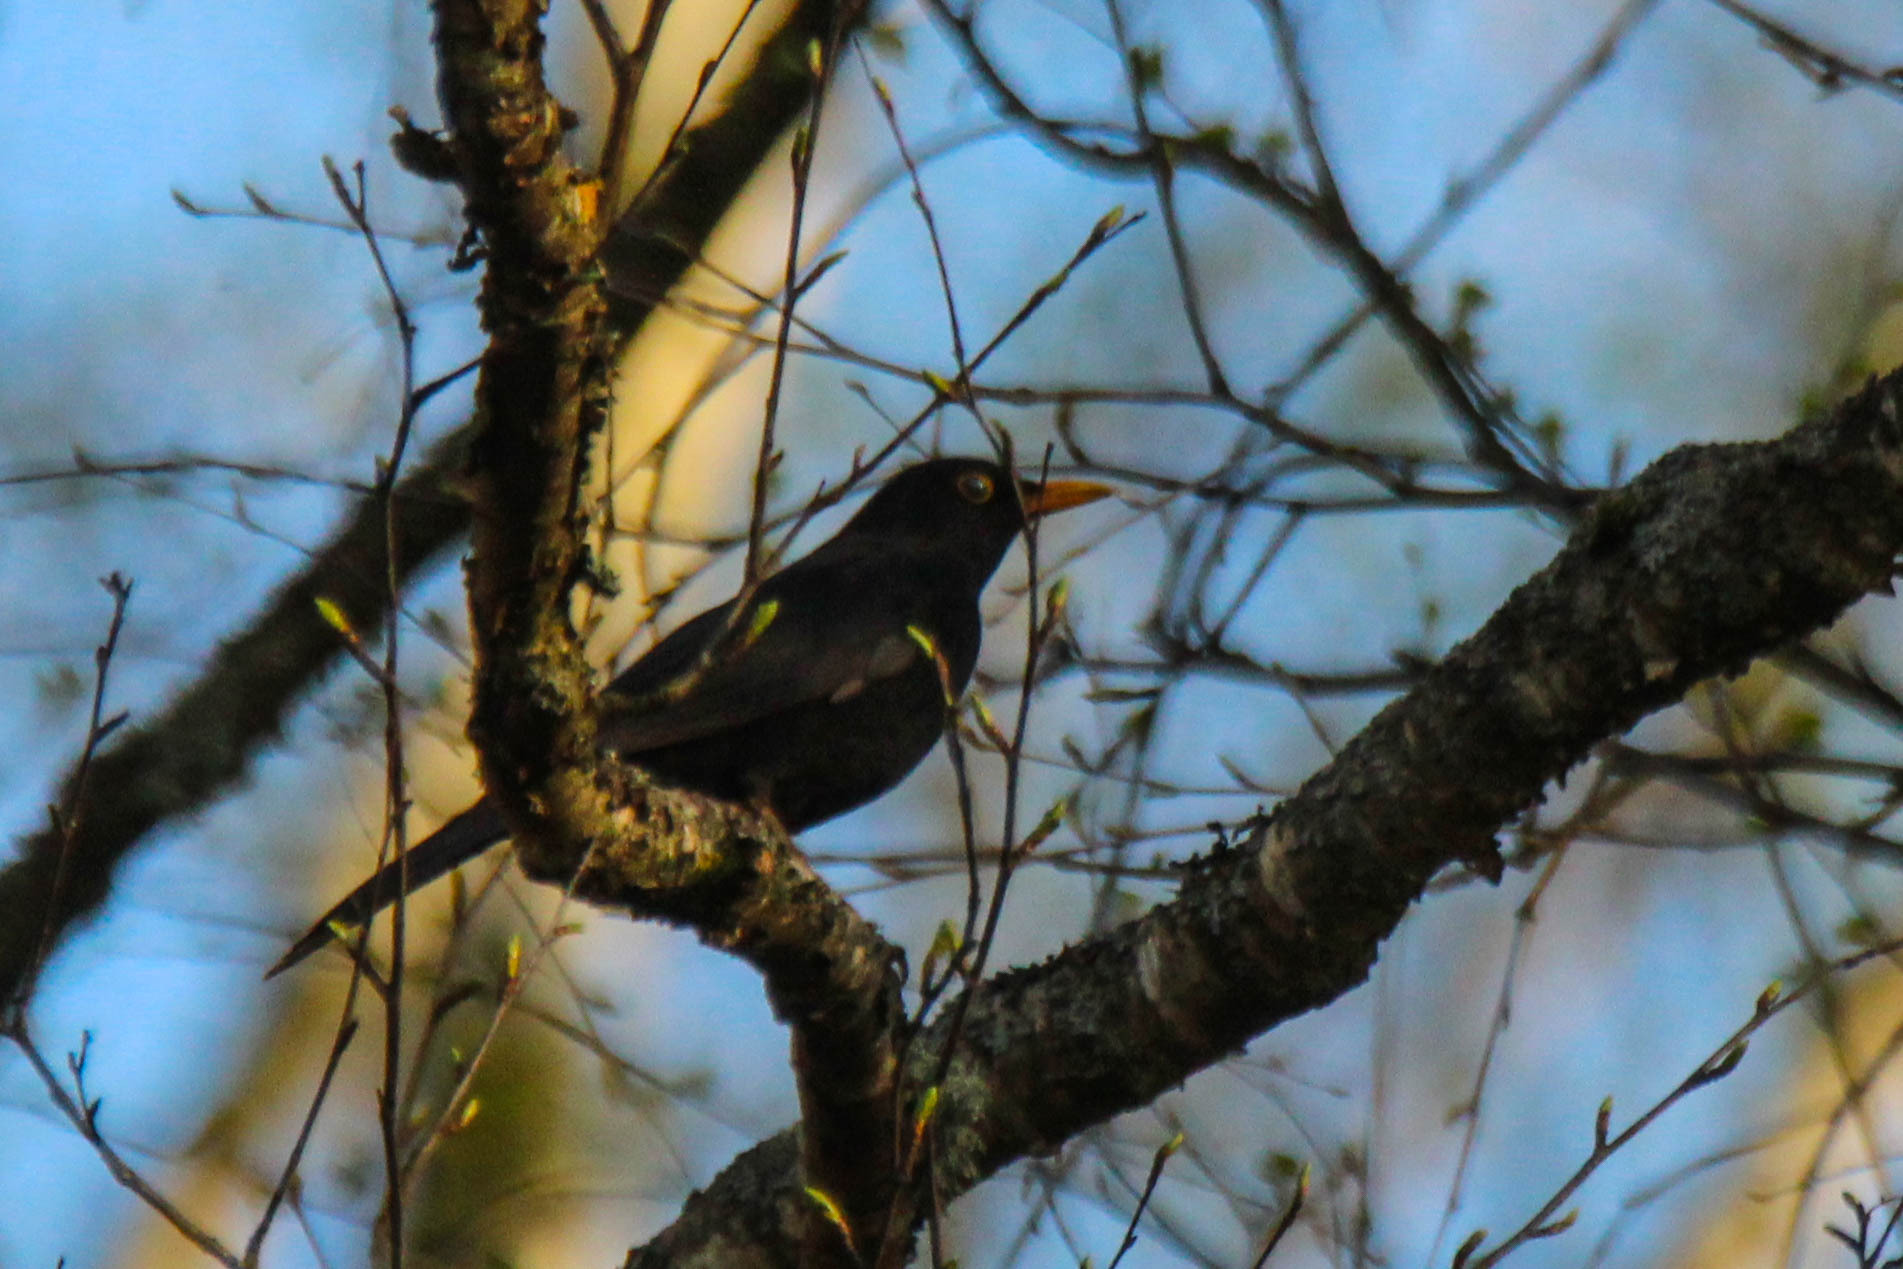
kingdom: Animalia
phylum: Chordata
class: Aves
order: Passeriformes
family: Turdidae
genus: Turdus
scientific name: Turdus merula
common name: Common blackbird
